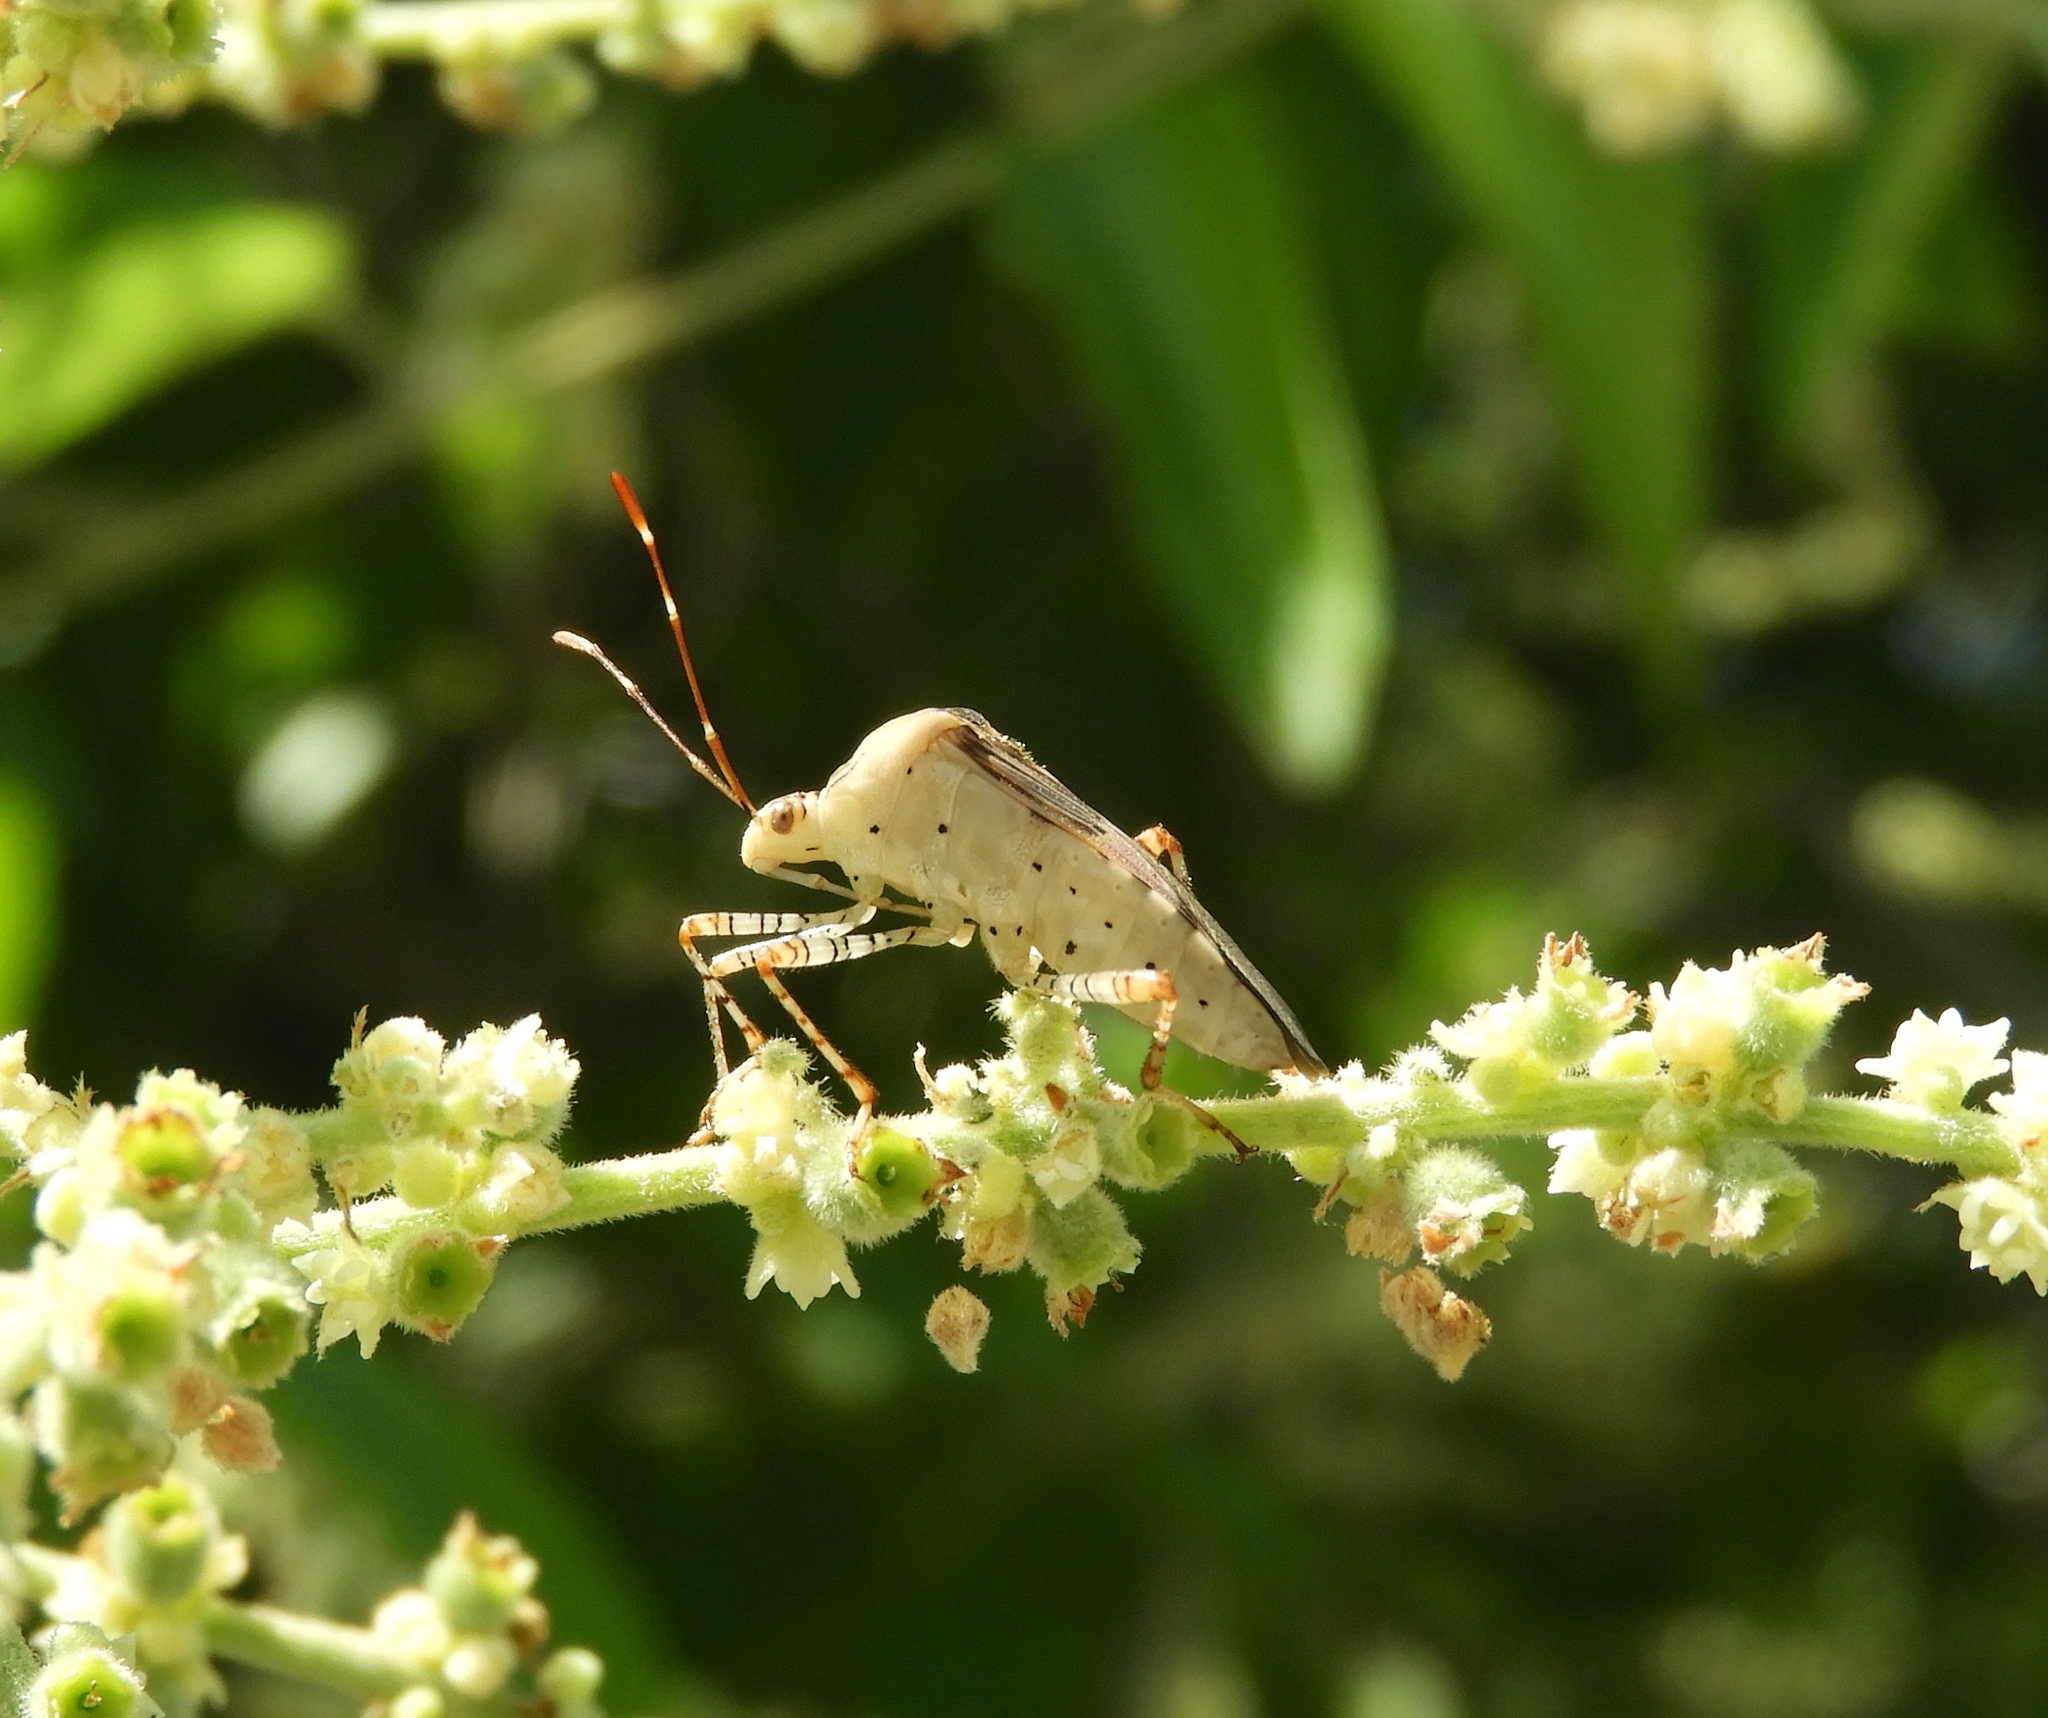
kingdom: Animalia
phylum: Arthropoda
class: Insecta
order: Hemiptera
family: Coreidae
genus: Hypselonotus
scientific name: Hypselonotus punctiventris
